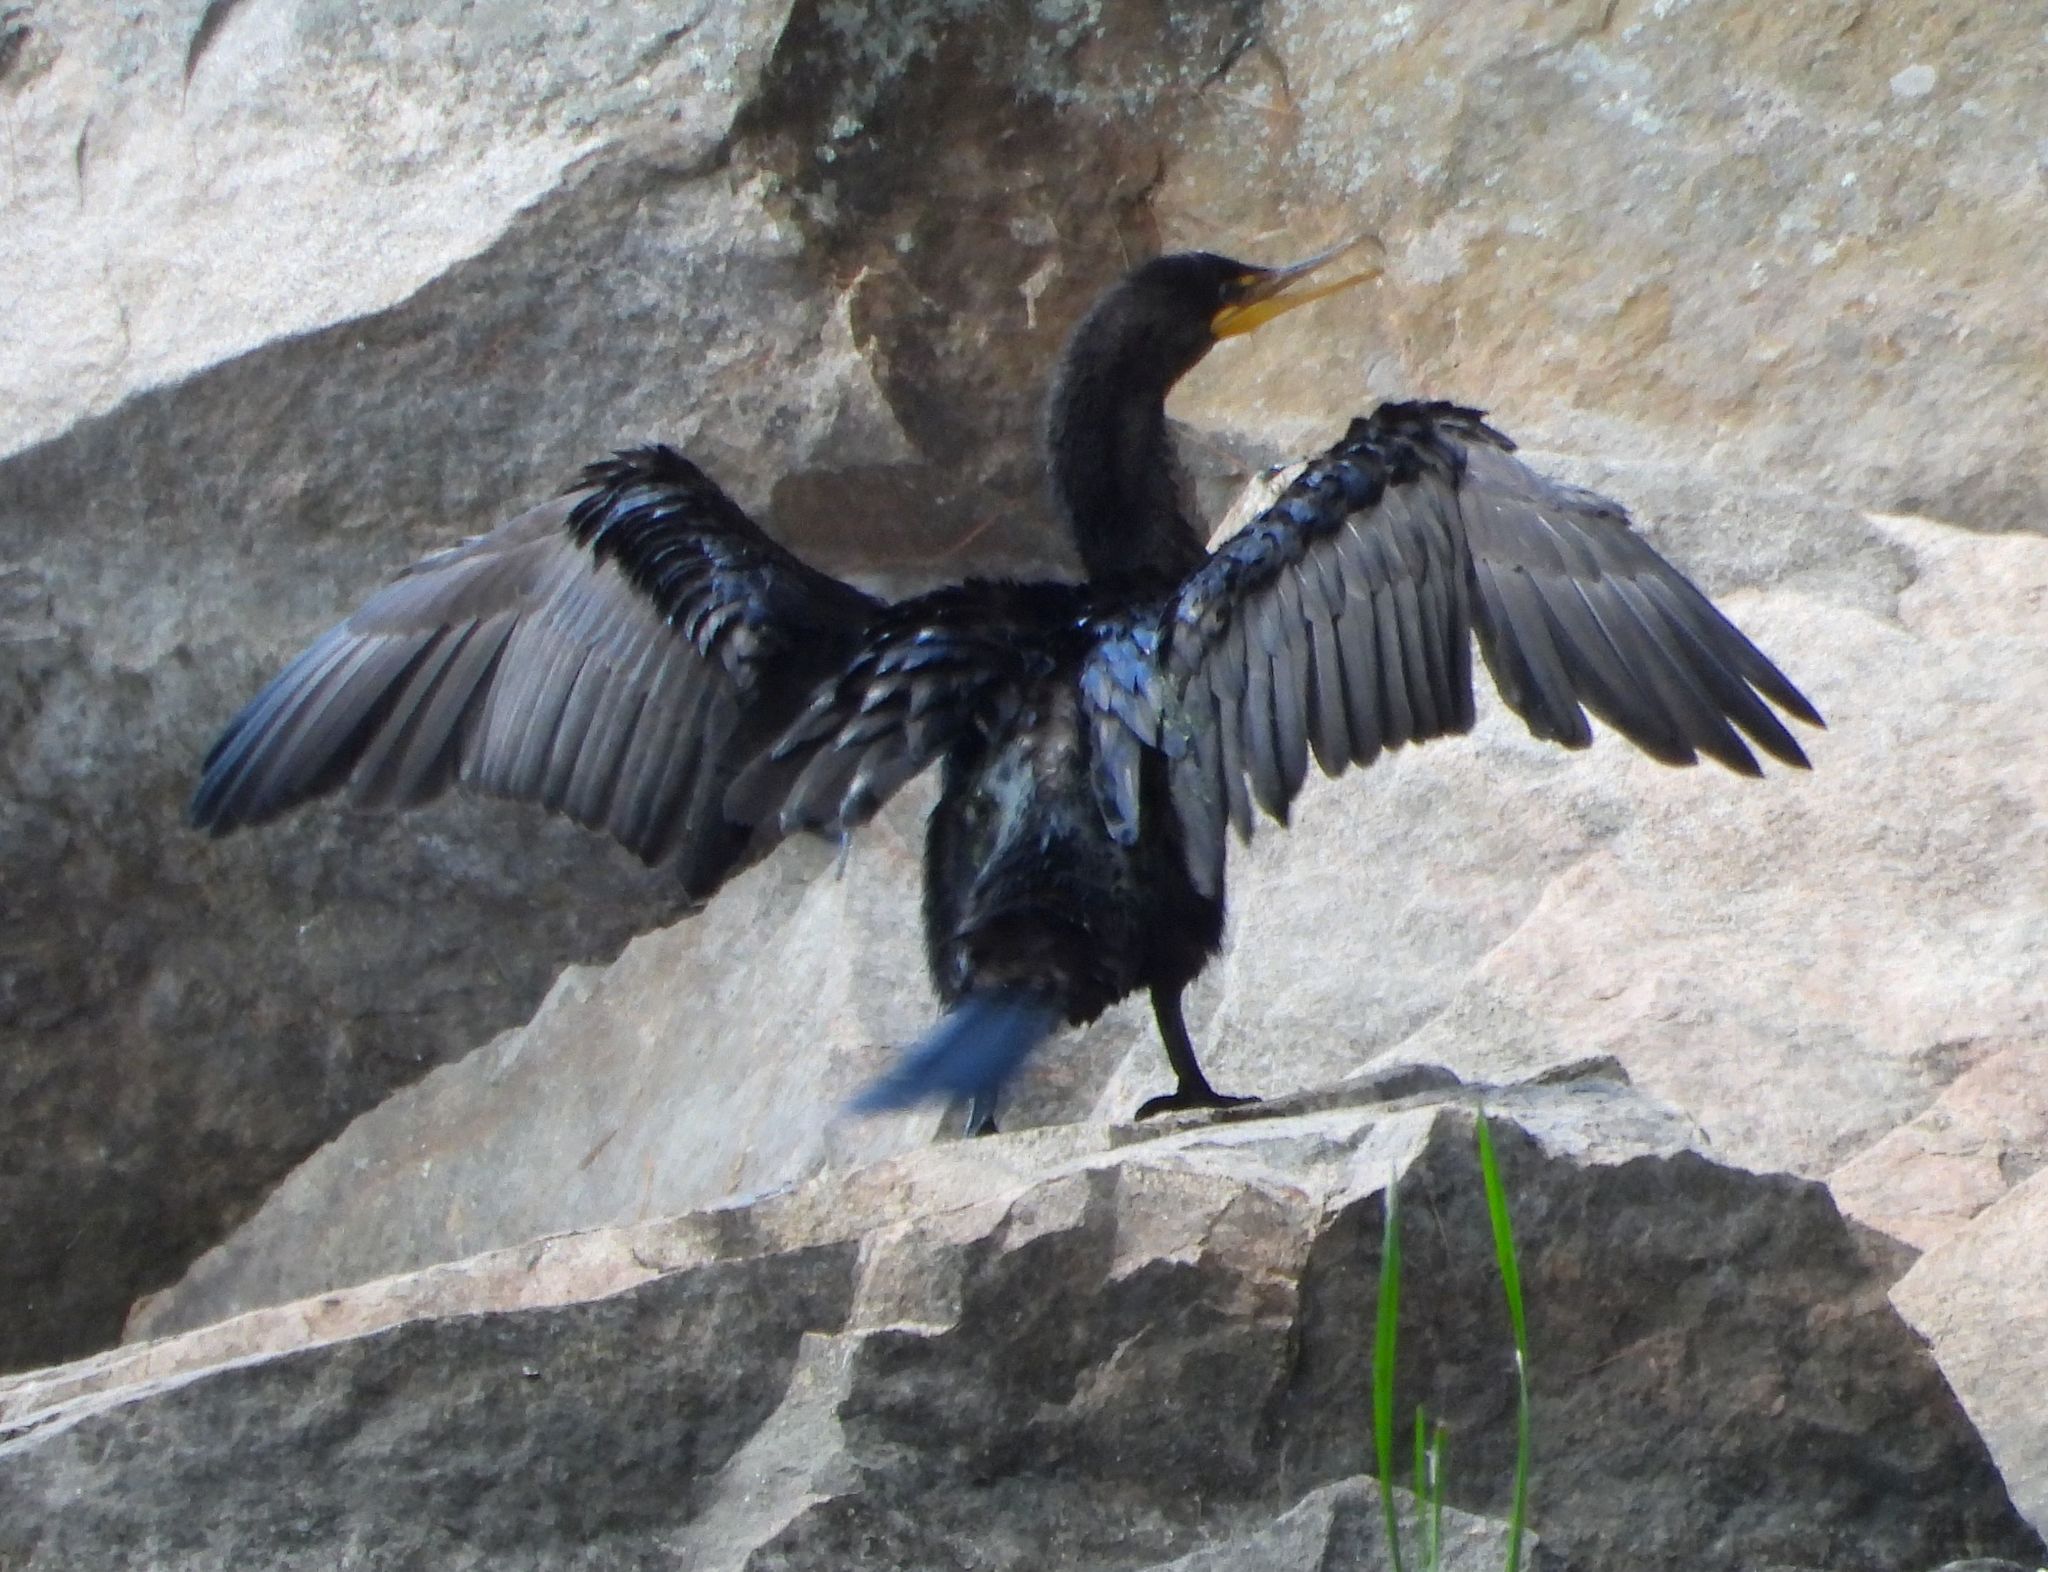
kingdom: Animalia
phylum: Chordata
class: Aves
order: Suliformes
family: Phalacrocoracidae
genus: Phalacrocorax
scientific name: Phalacrocorax auritus
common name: Double-crested cormorant
